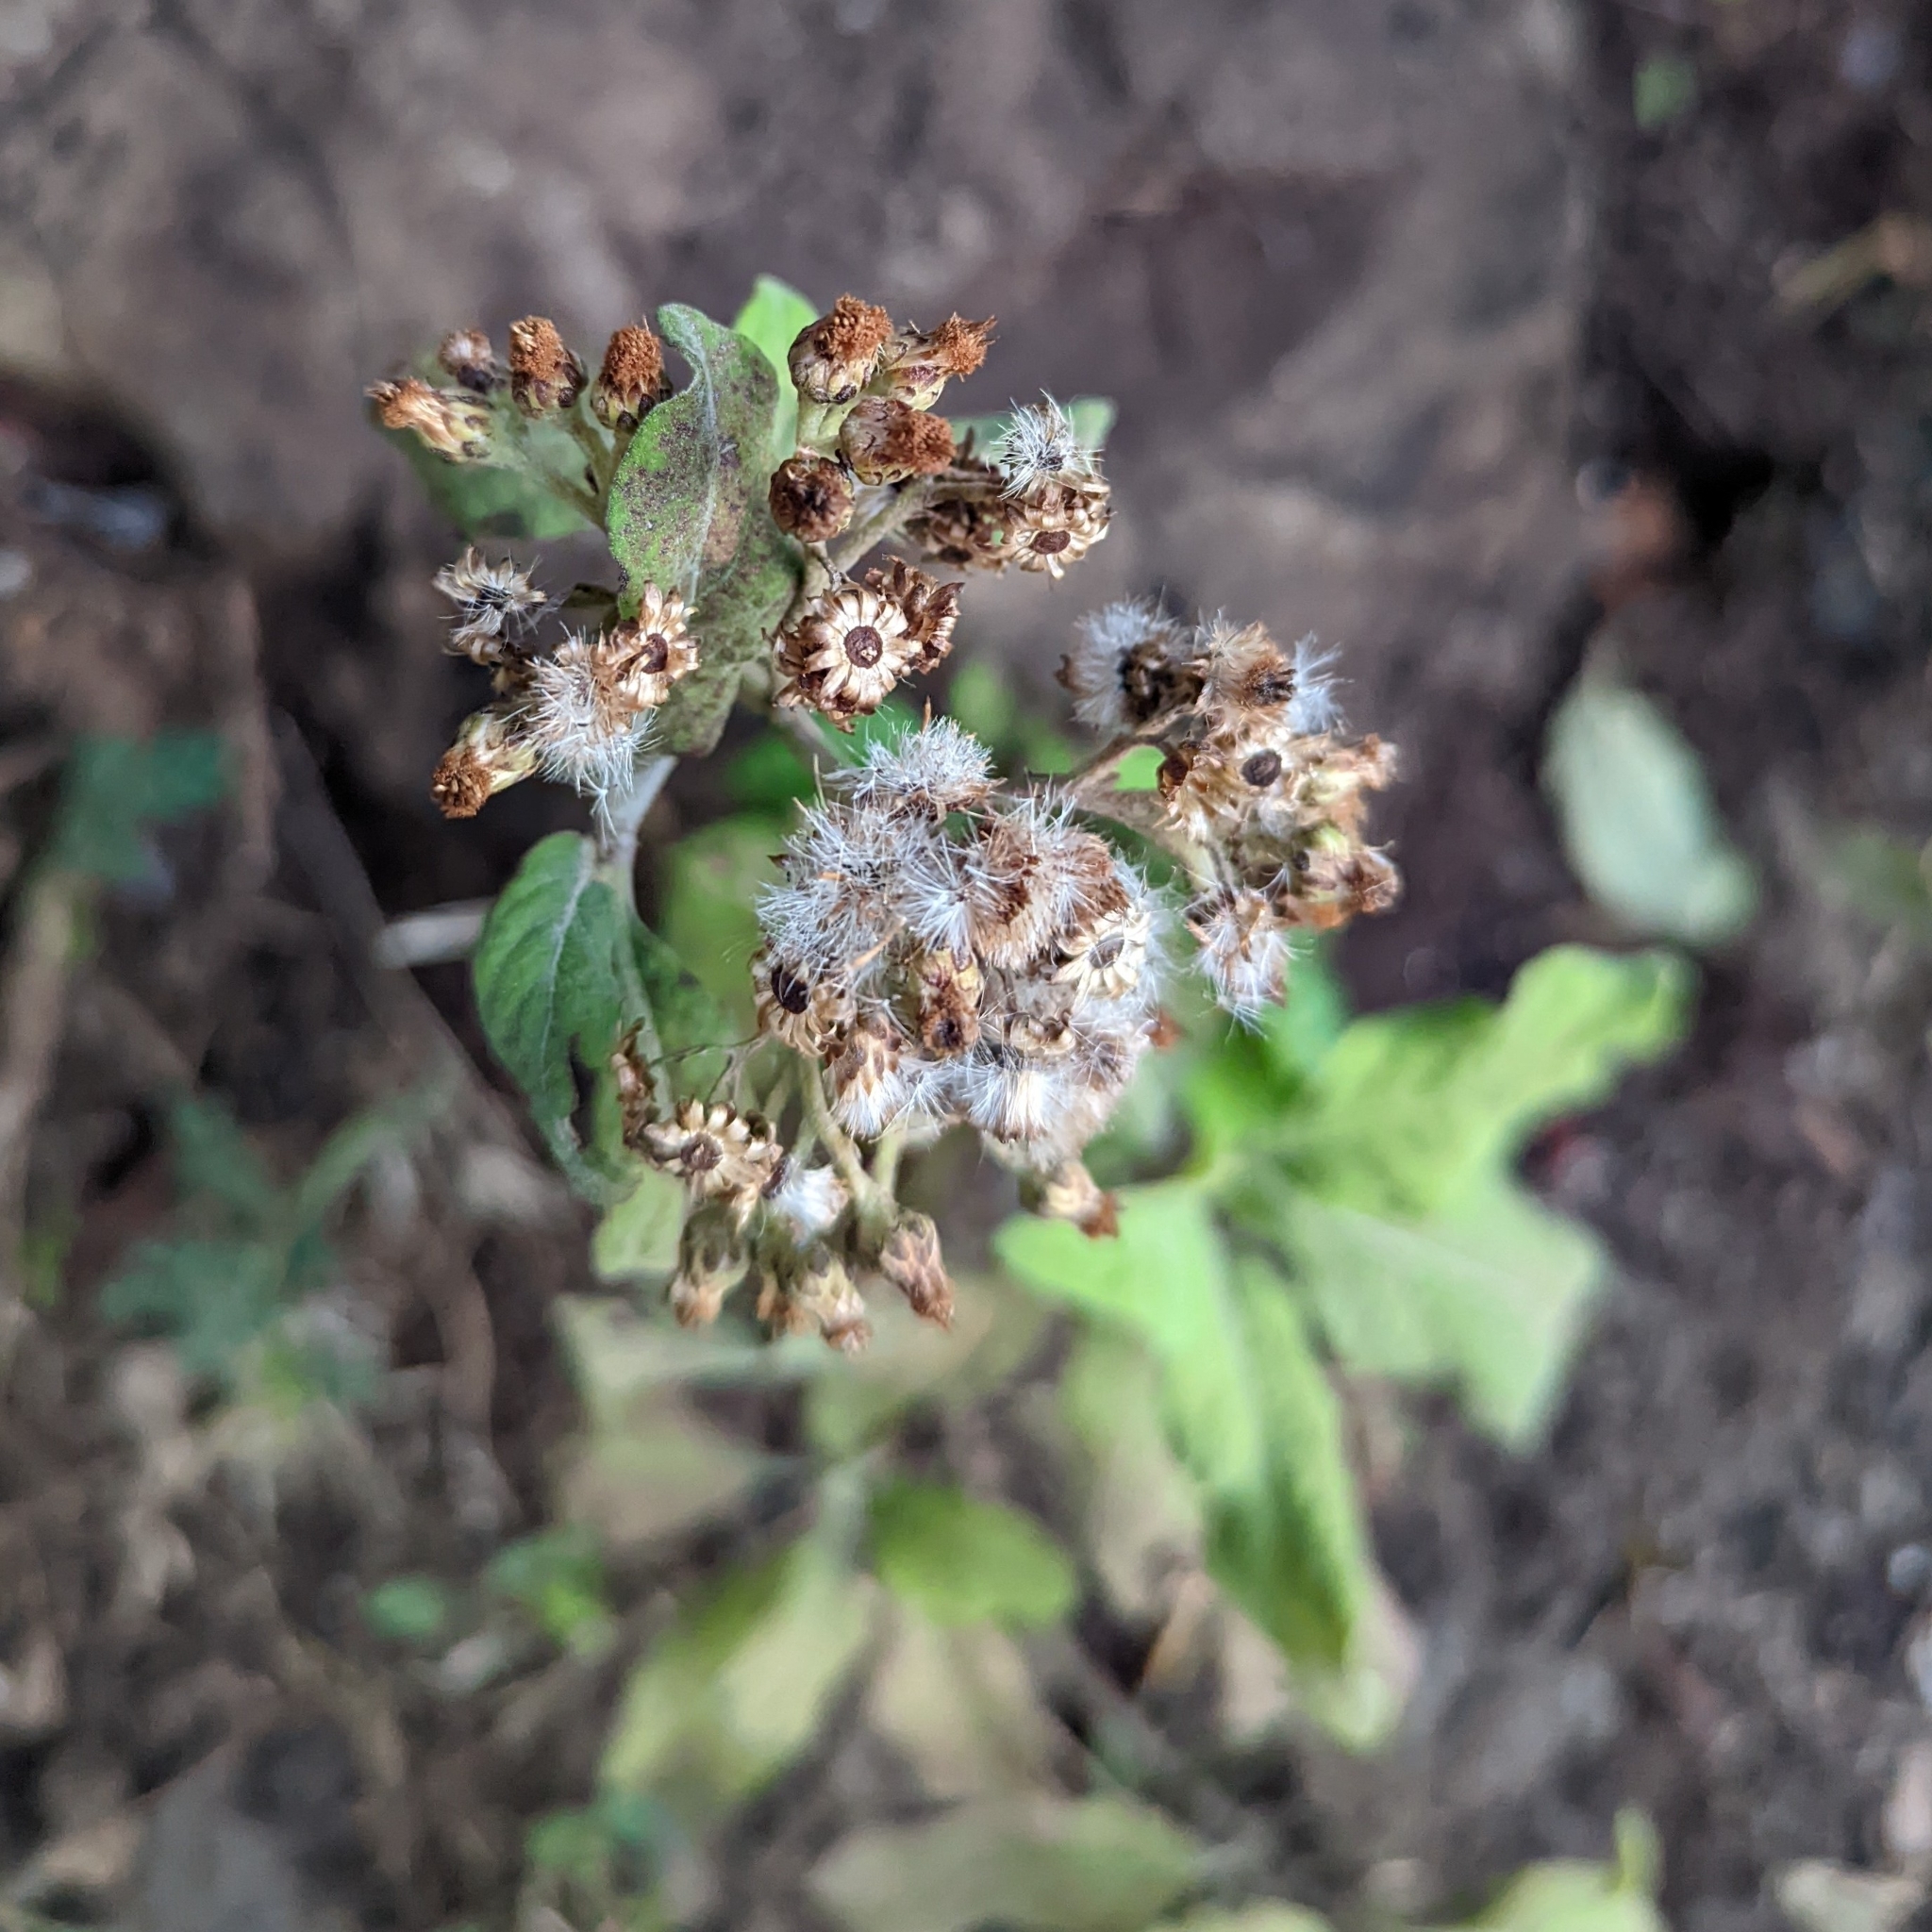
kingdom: Plantae
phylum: Tracheophyta
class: Magnoliopsida
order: Asterales
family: Asteraceae
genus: Pluchea
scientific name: Pluchea carolinensis
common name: Marsh fleabane
